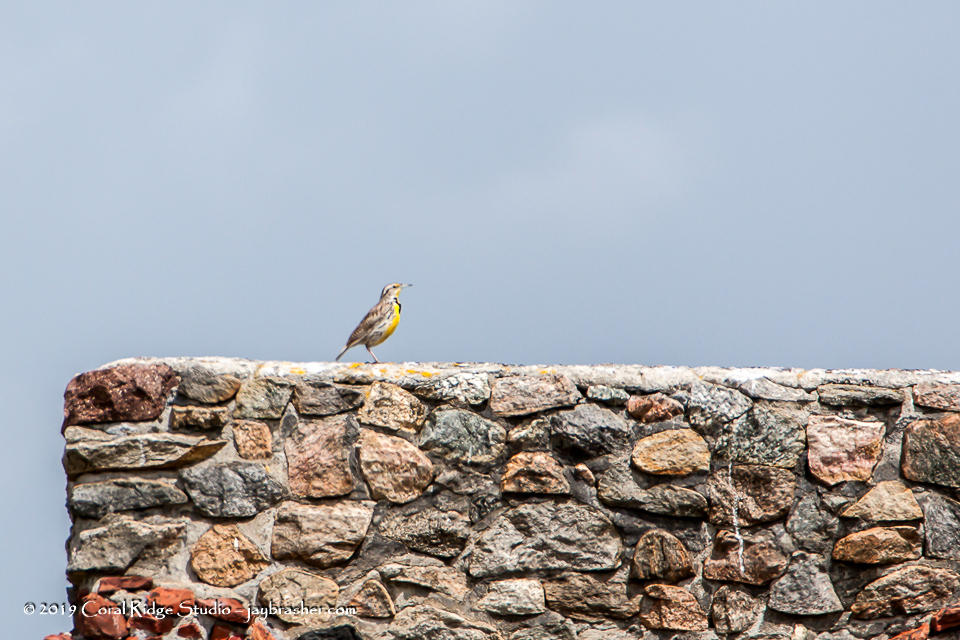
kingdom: Animalia
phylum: Chordata
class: Aves
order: Passeriformes
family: Icteridae
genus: Sturnella
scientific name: Sturnella neglecta
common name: Western meadowlark
